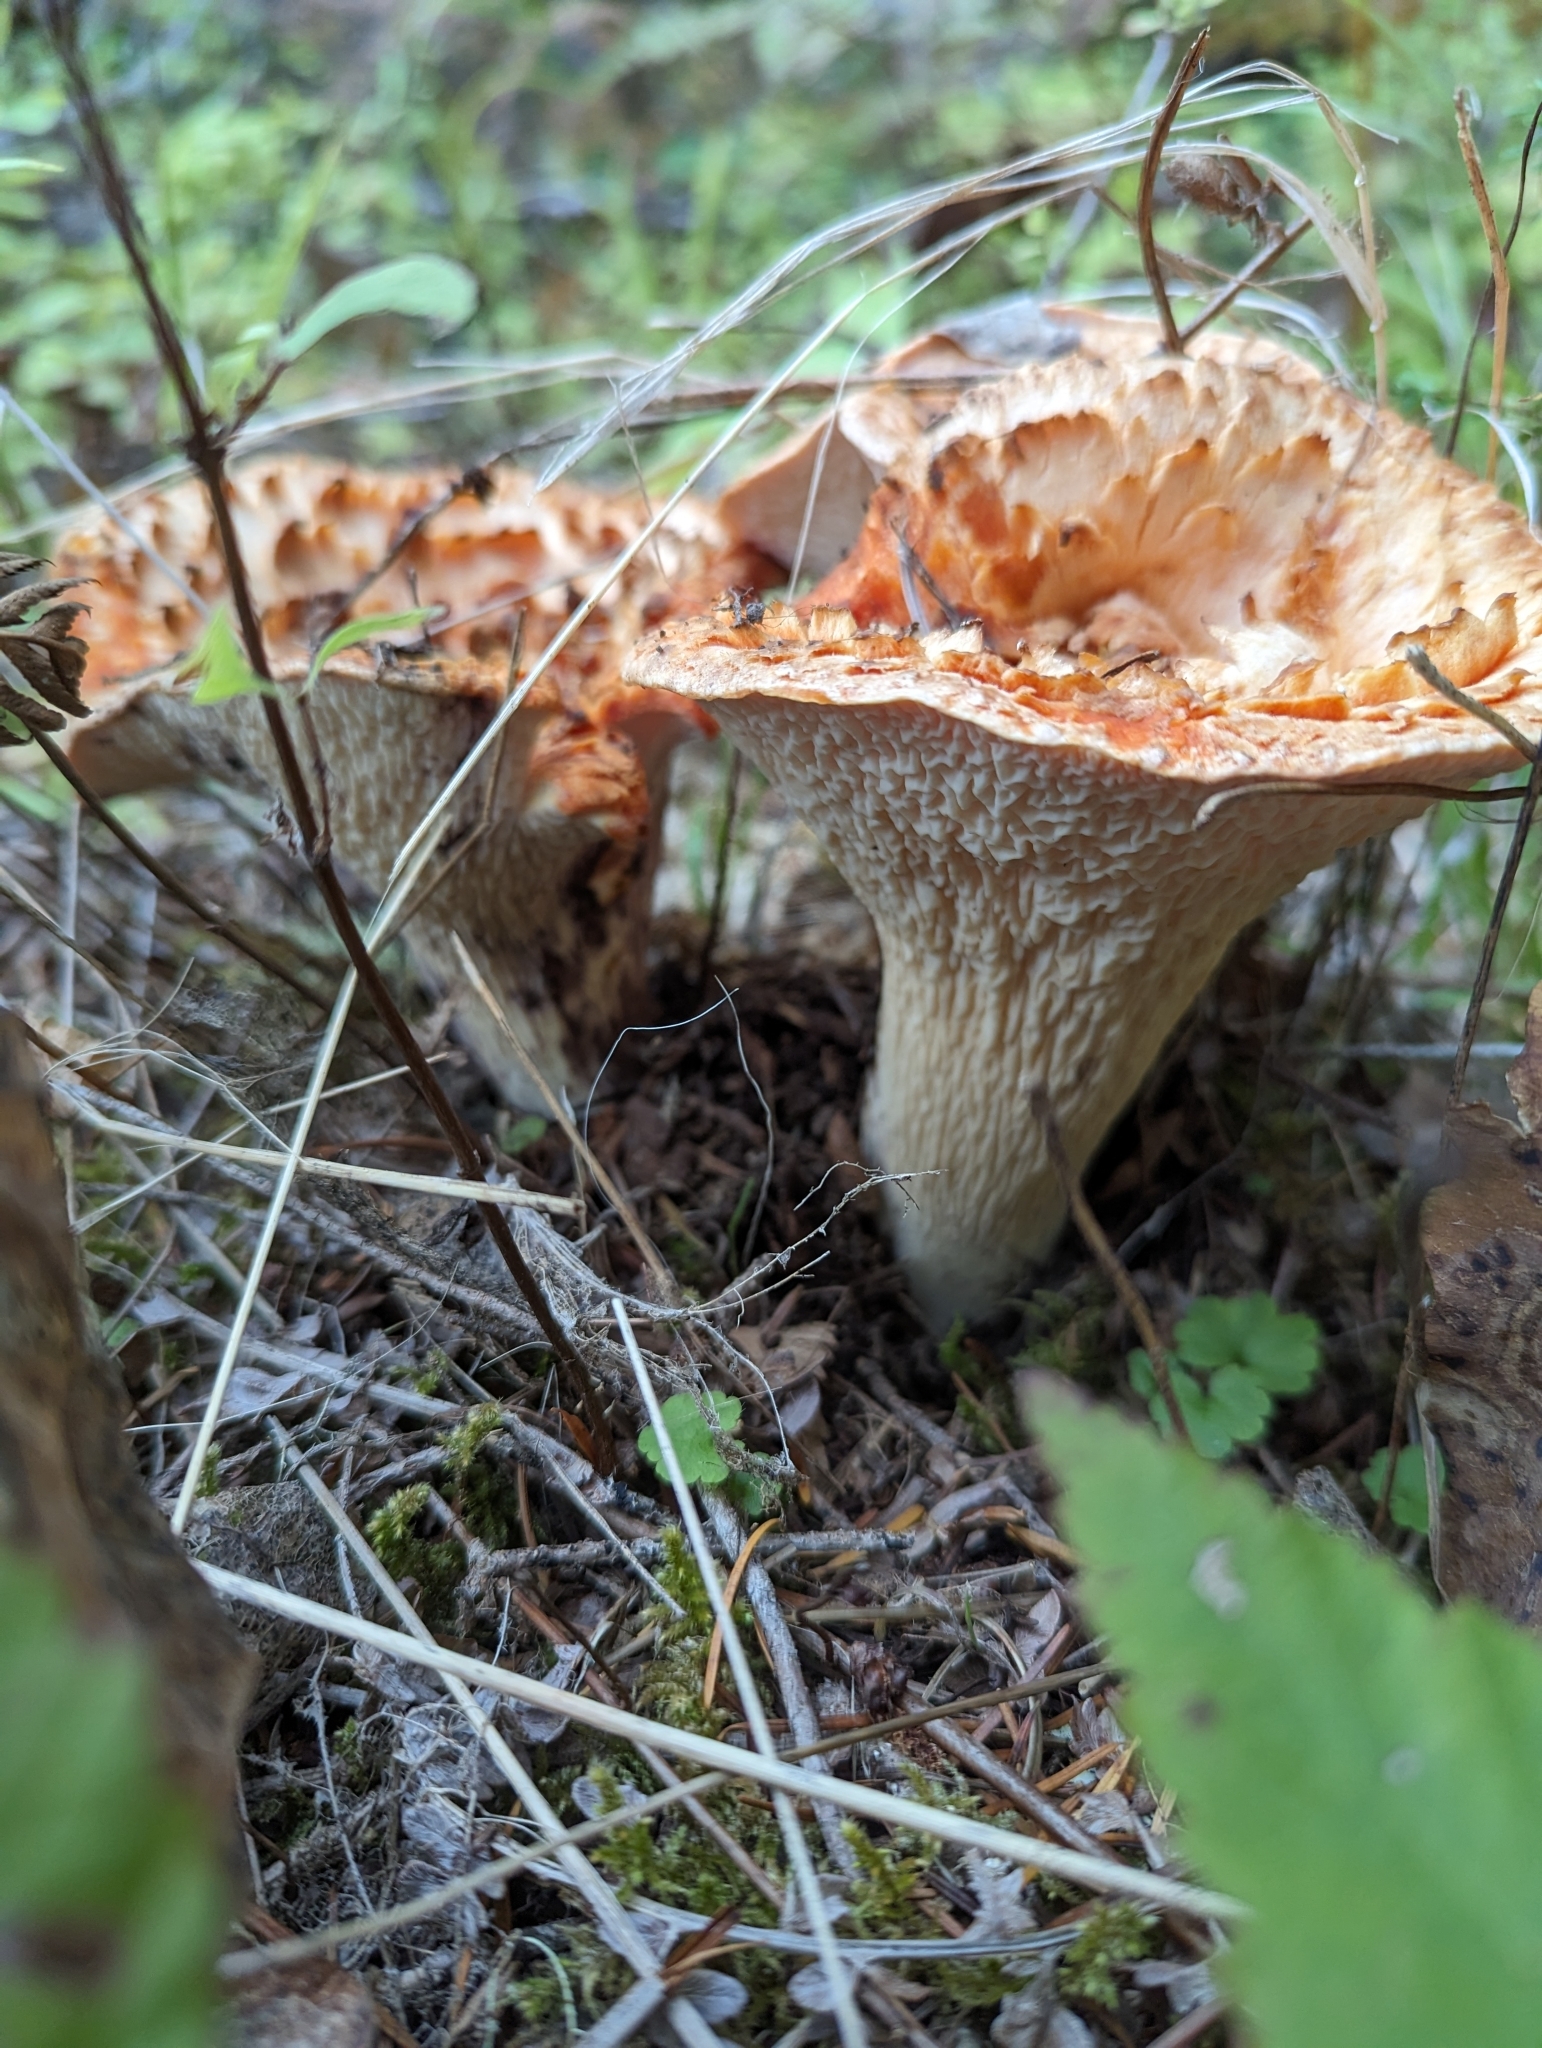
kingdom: Fungi
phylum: Basidiomycota
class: Agaricomycetes
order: Gomphales
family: Gomphaceae
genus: Turbinellus
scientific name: Turbinellus kauffmanii
